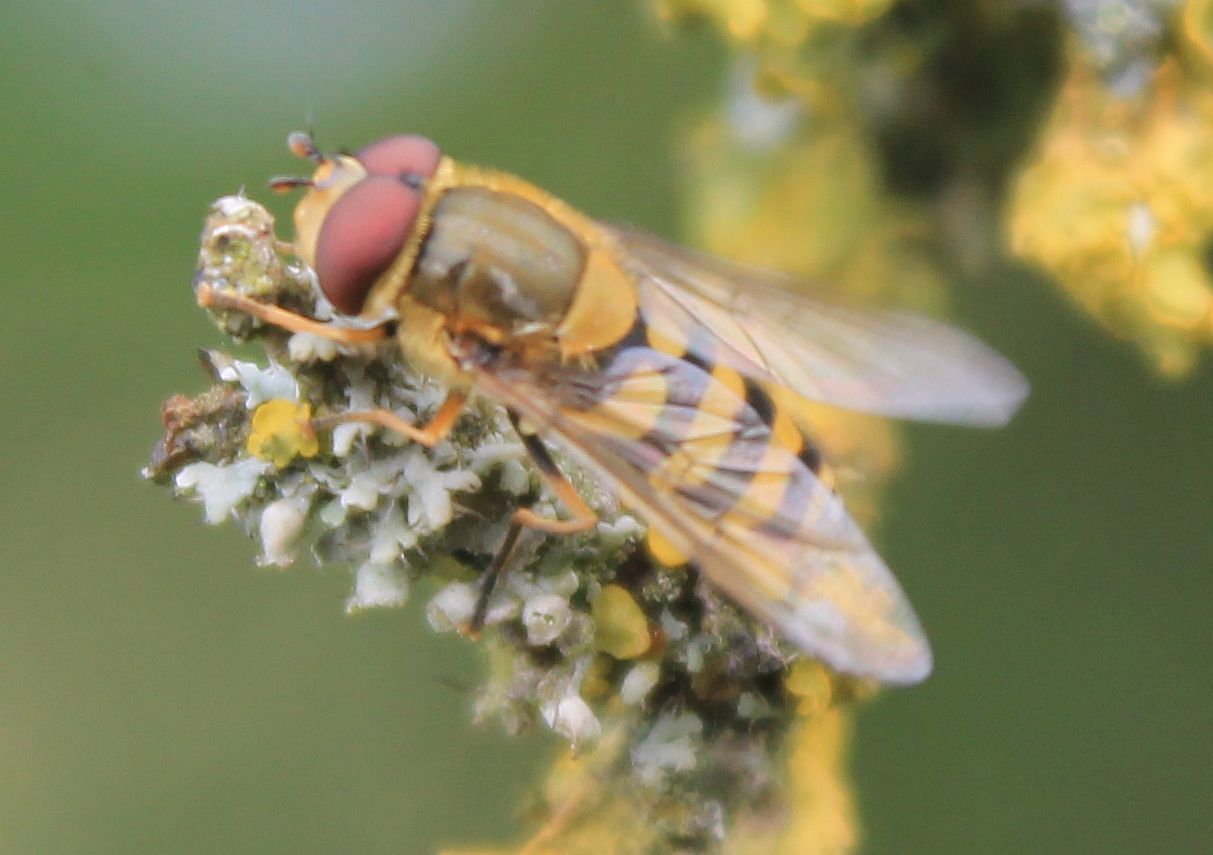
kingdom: Animalia
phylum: Arthropoda
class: Insecta
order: Diptera
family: Syrphidae
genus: Syrphus
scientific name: Syrphus
